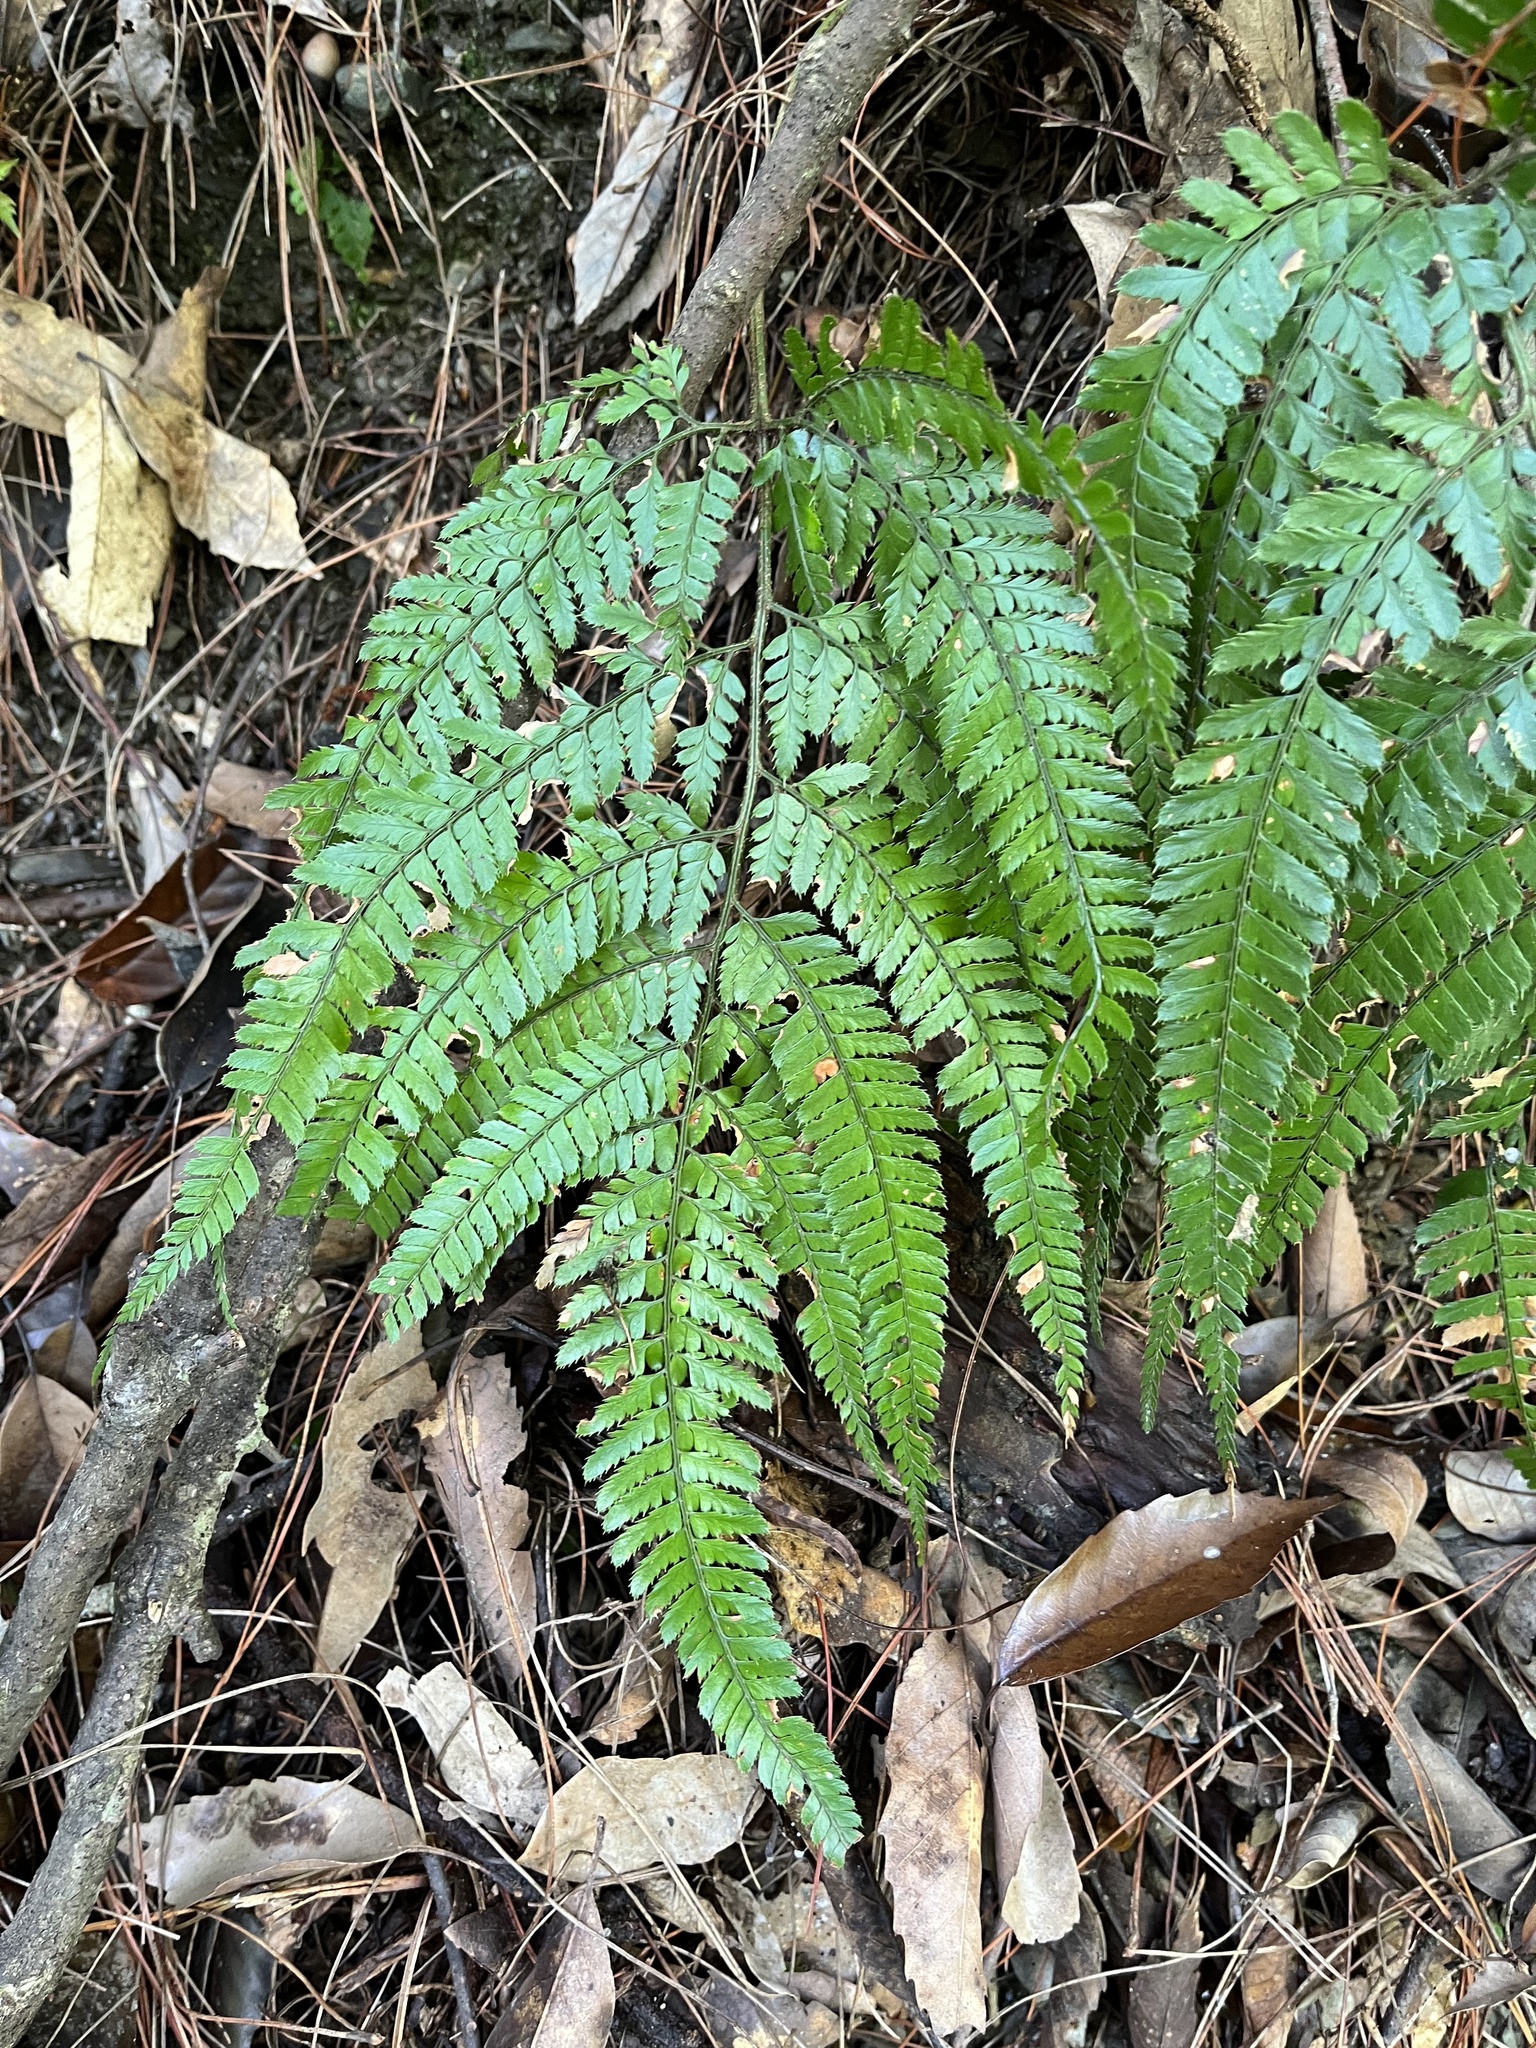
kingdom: Plantae
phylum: Tracheophyta
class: Polypodiopsida
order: Polypodiales
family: Dryopteridaceae
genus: Arachniodes
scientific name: Arachniodes aristata
